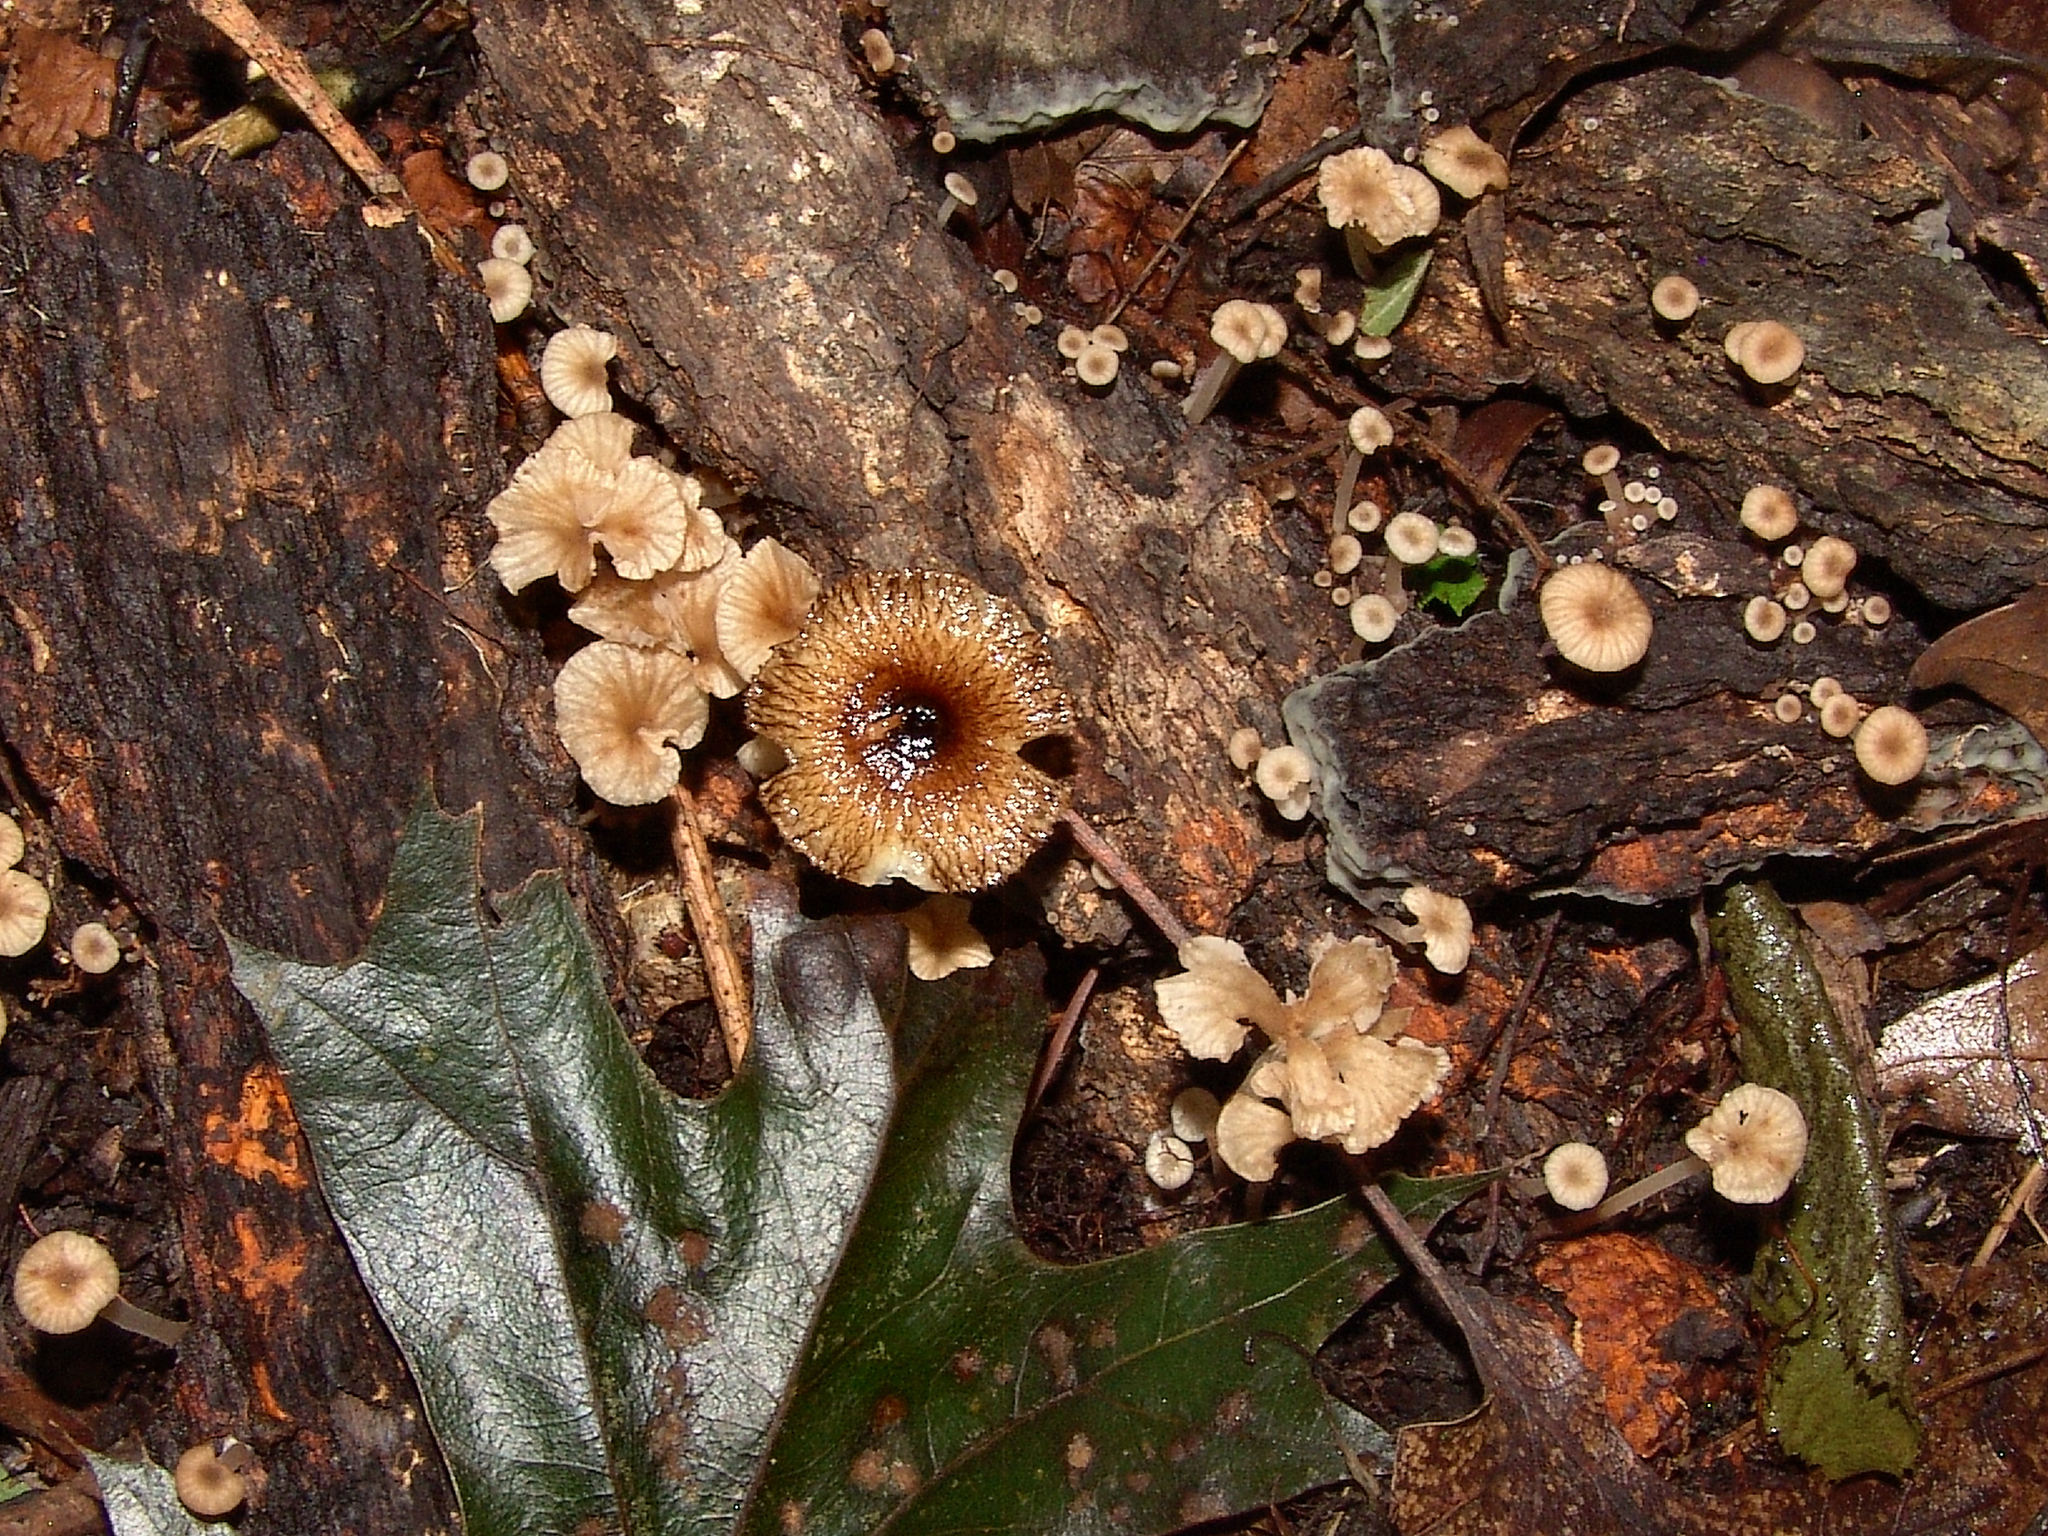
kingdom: Fungi
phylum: Basidiomycota
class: Agaricomycetes
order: Agaricales
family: Omphalotaceae
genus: Gymnopus
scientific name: Gymnopus foetidus
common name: Foetid parachute
